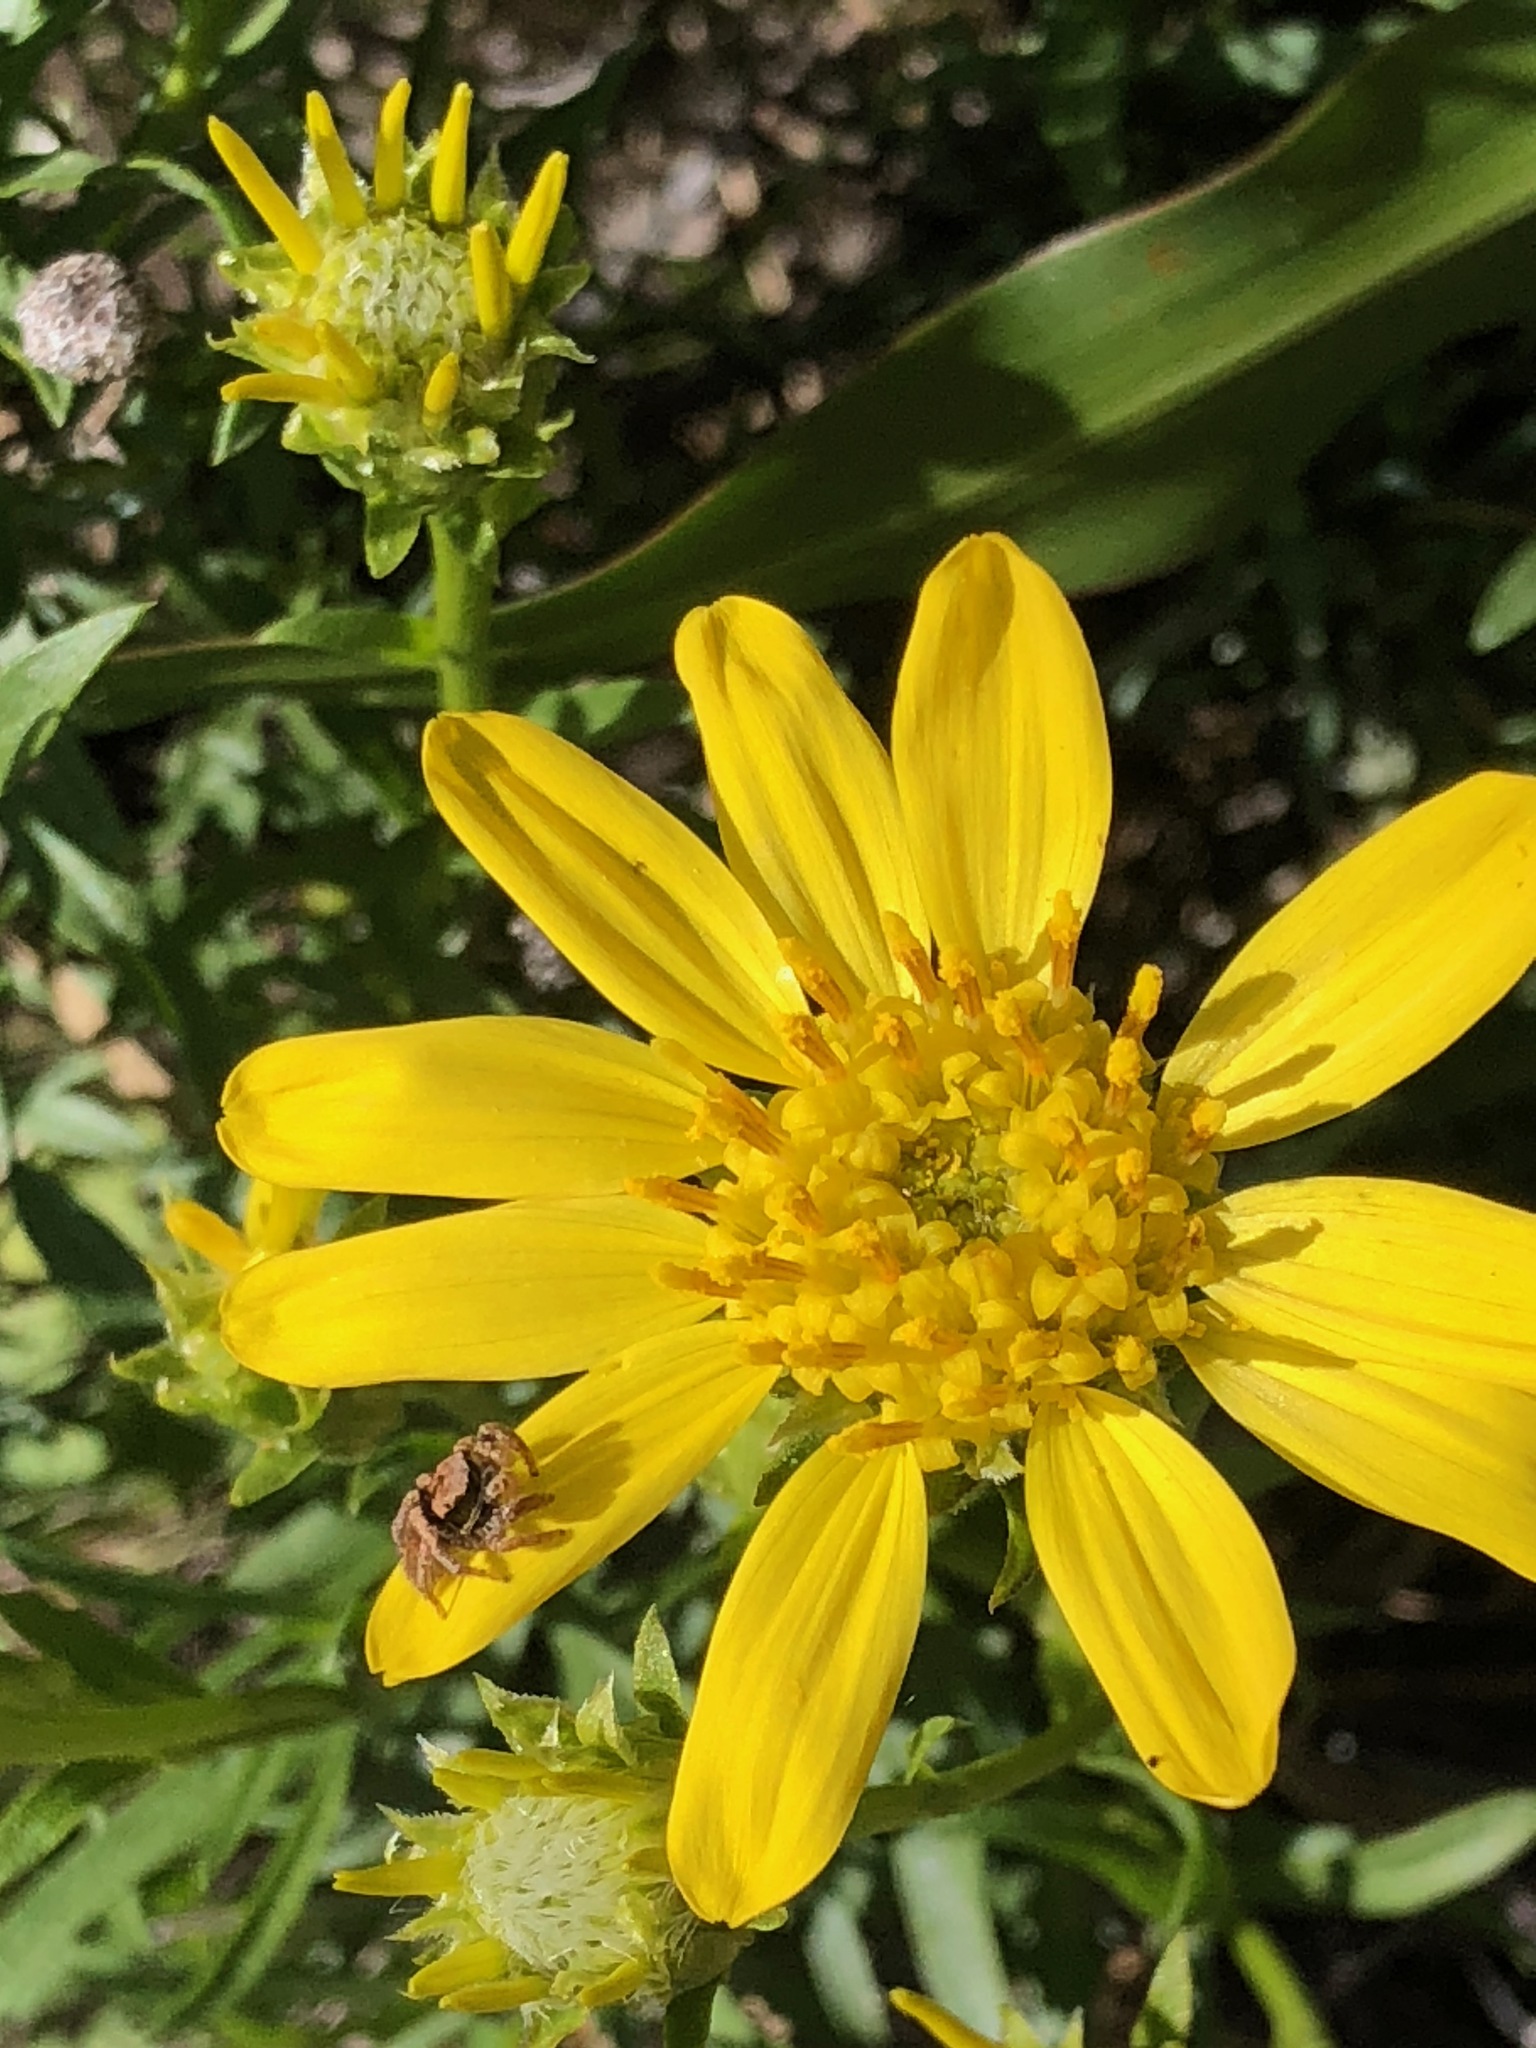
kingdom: Plantae
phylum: Tracheophyta
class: Magnoliopsida
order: Asterales
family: Asteraceae
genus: Ericameria
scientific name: Ericameria linearifolia
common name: Interior goldenbush
